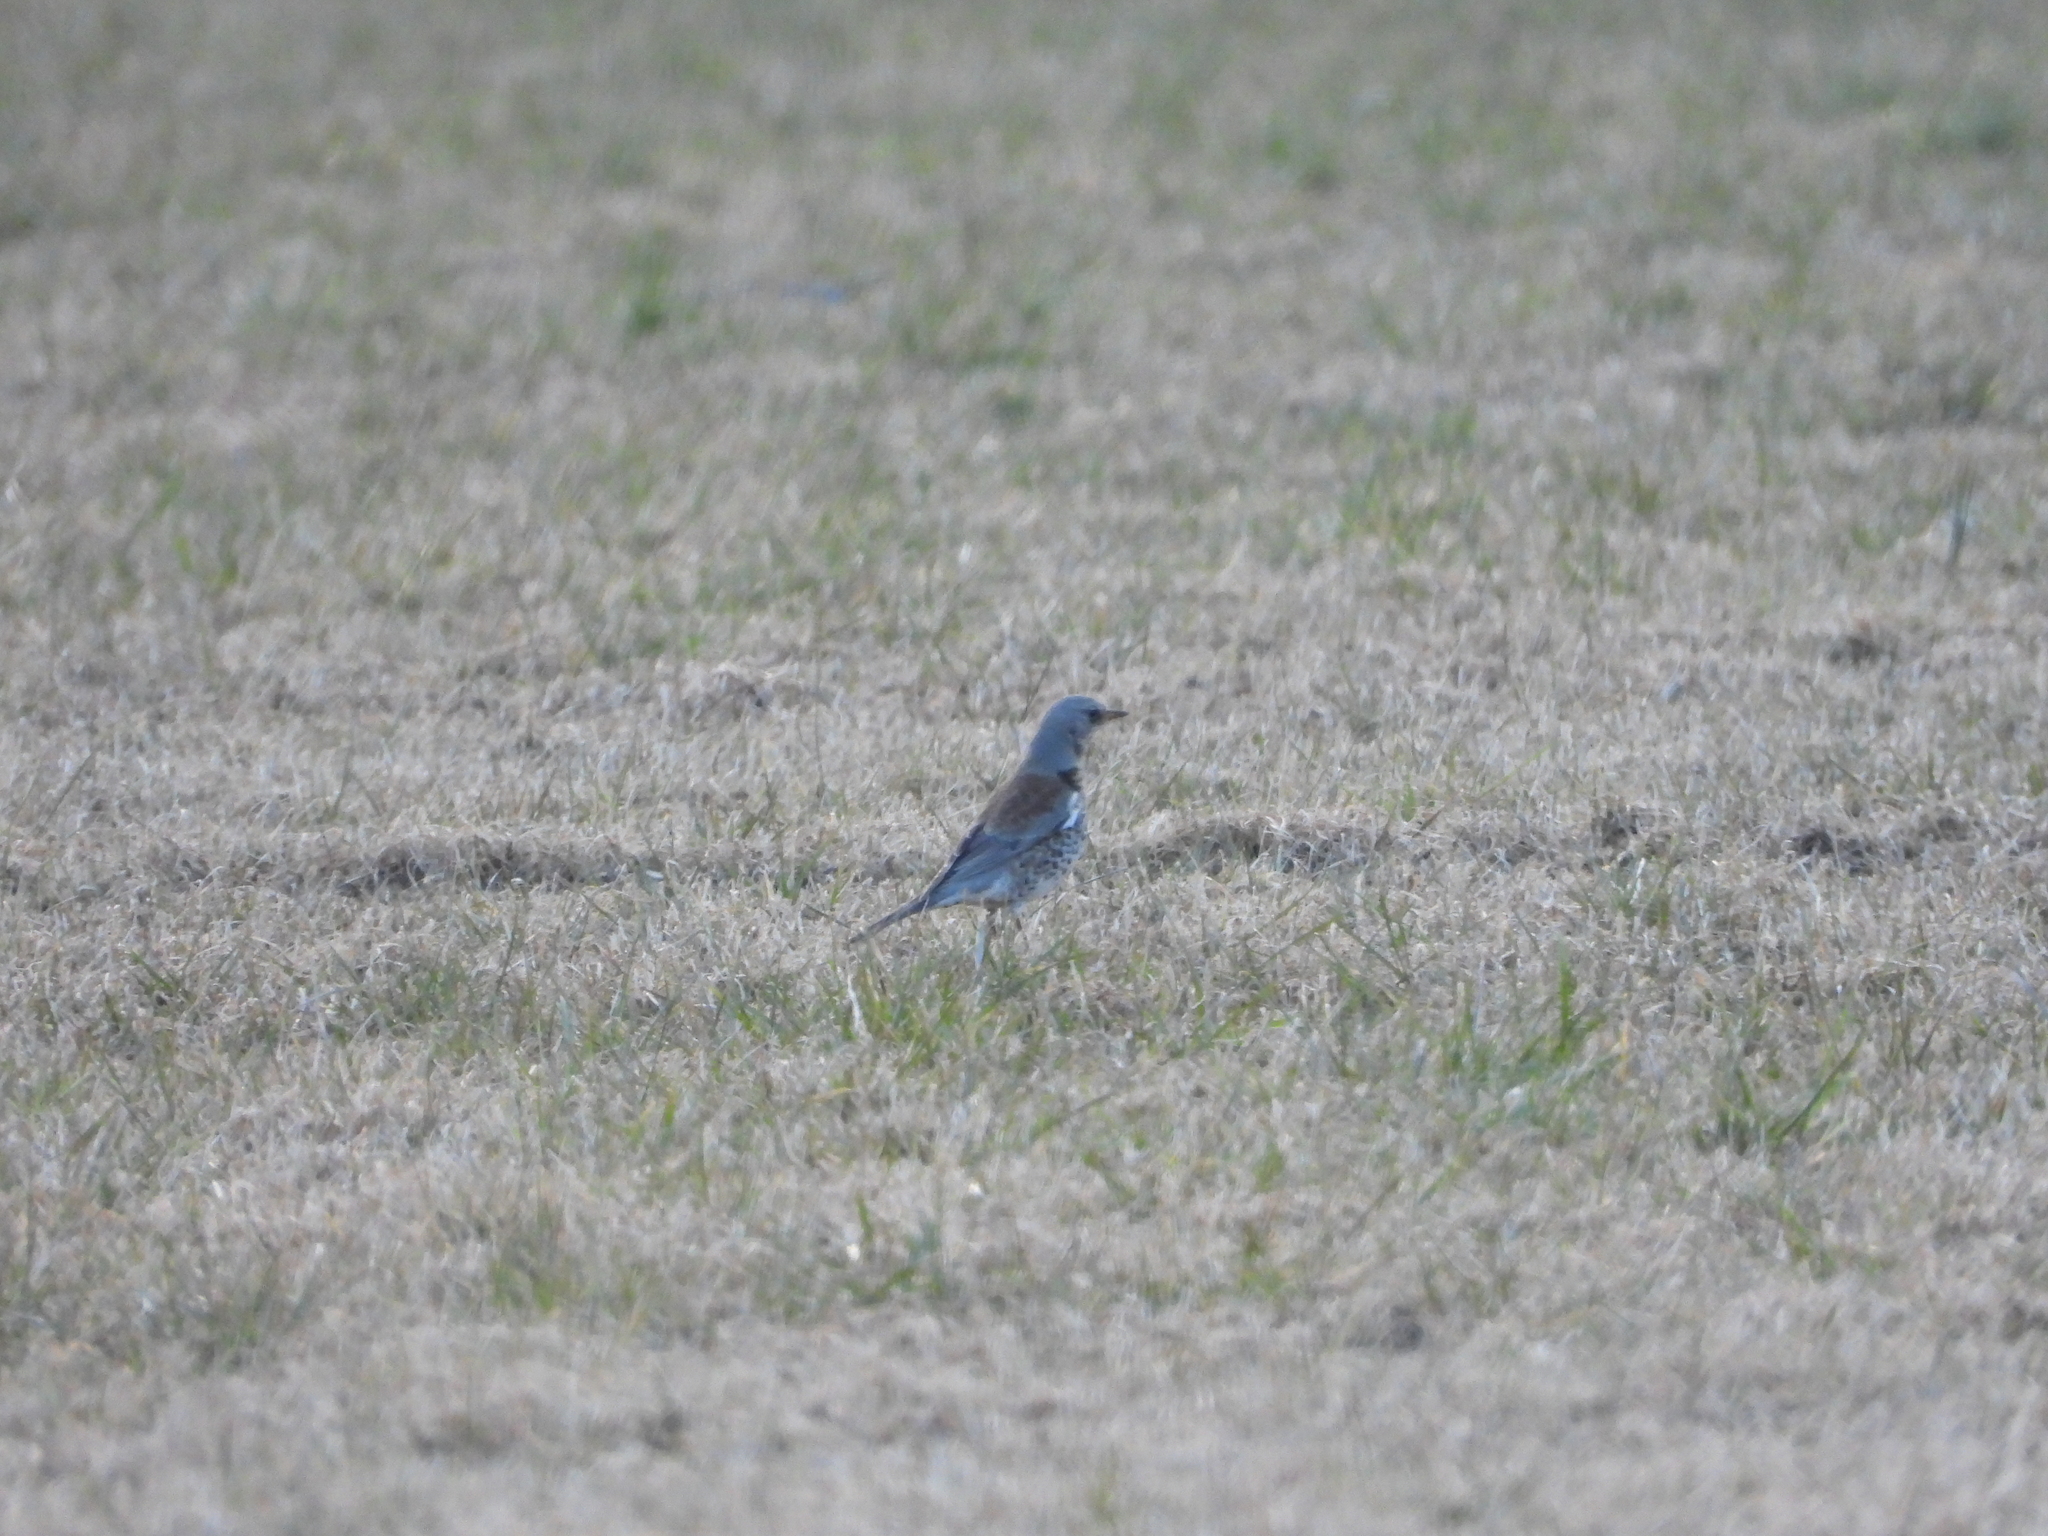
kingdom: Animalia
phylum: Chordata
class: Aves
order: Passeriformes
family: Turdidae
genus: Turdus
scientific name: Turdus pilaris
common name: Fieldfare
